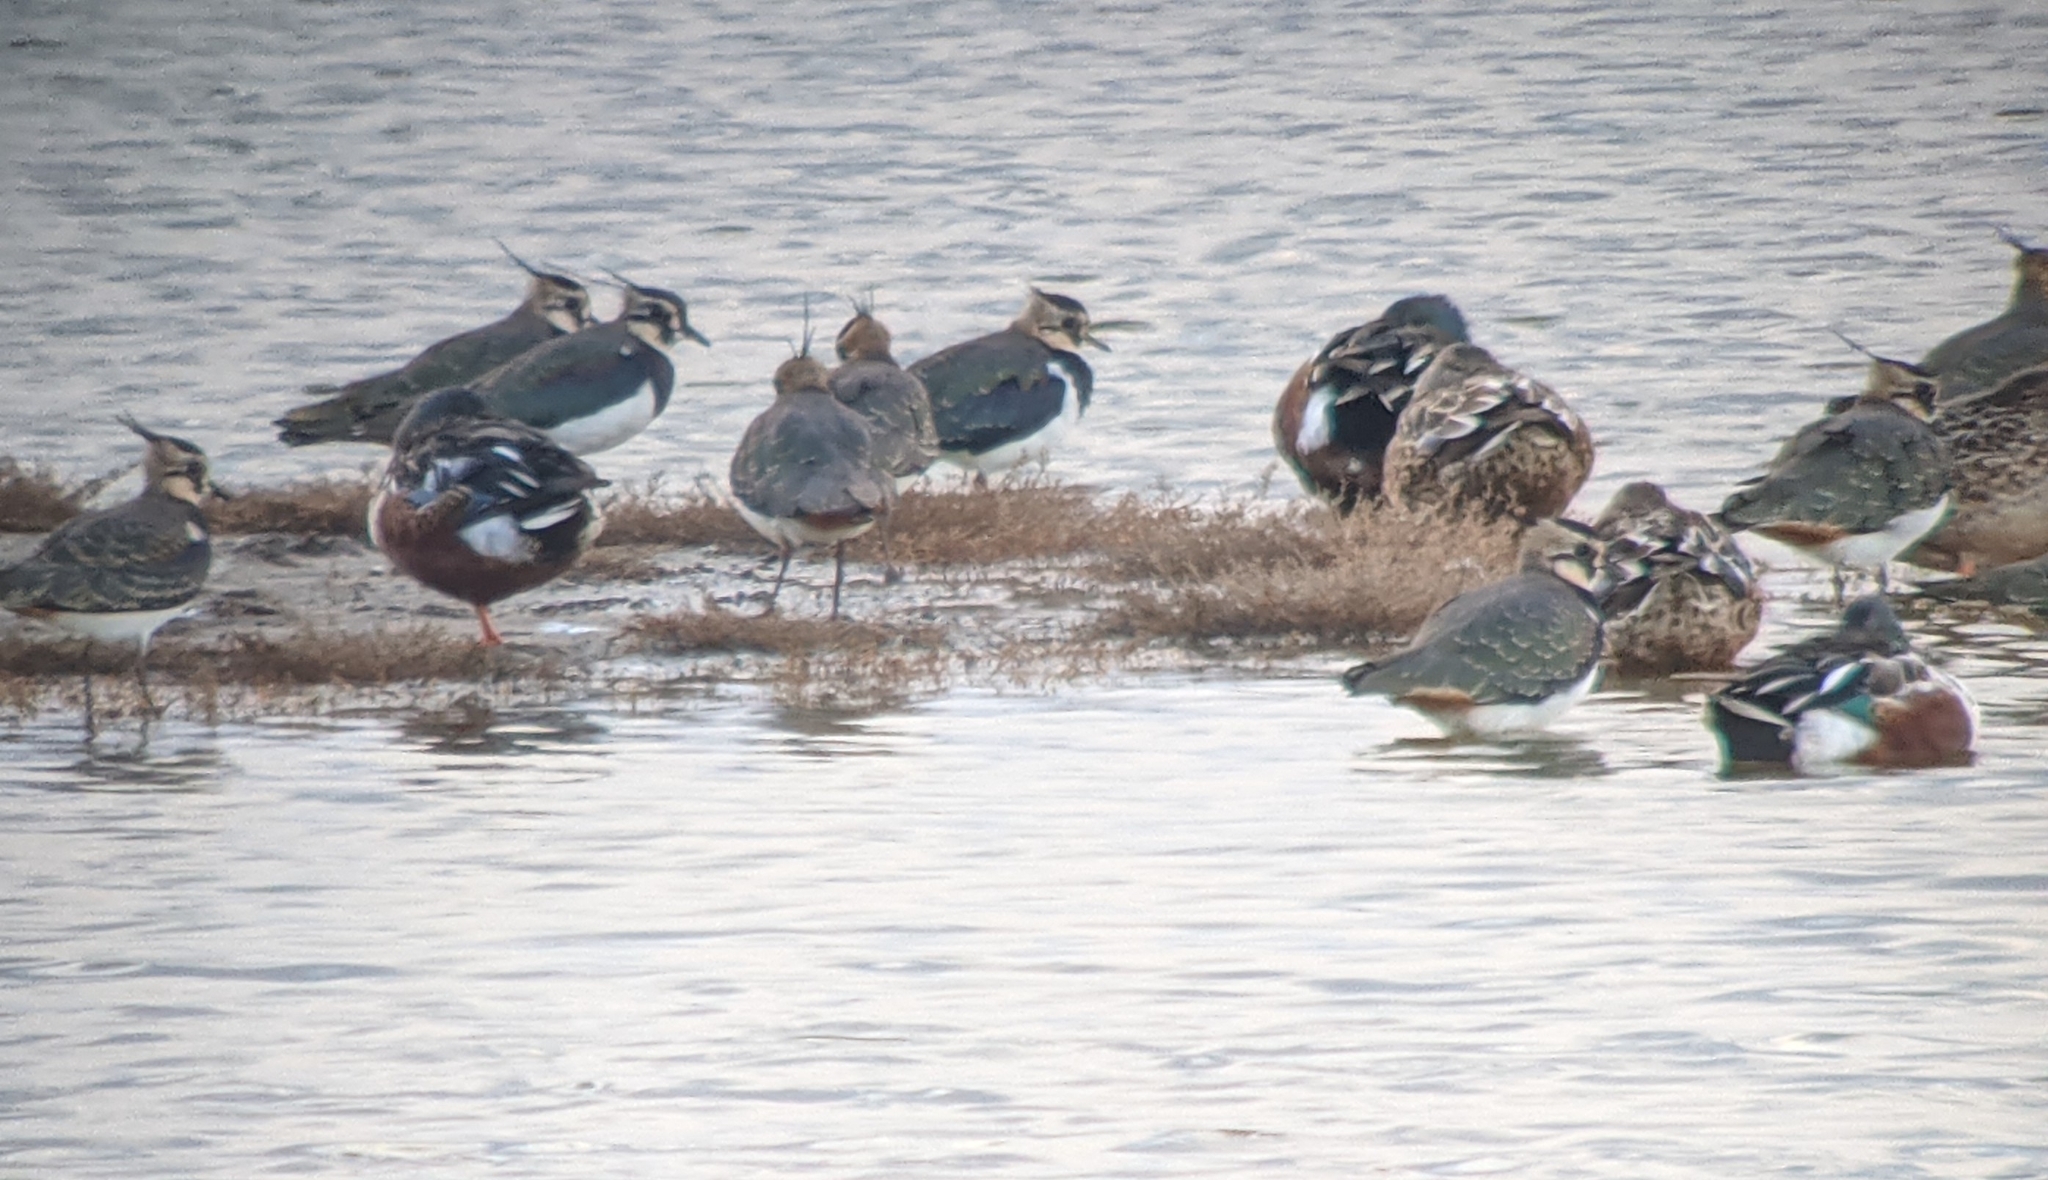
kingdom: Animalia
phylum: Chordata
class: Aves
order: Charadriiformes
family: Charadriidae
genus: Vanellus
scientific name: Vanellus vanellus
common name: Northern lapwing
